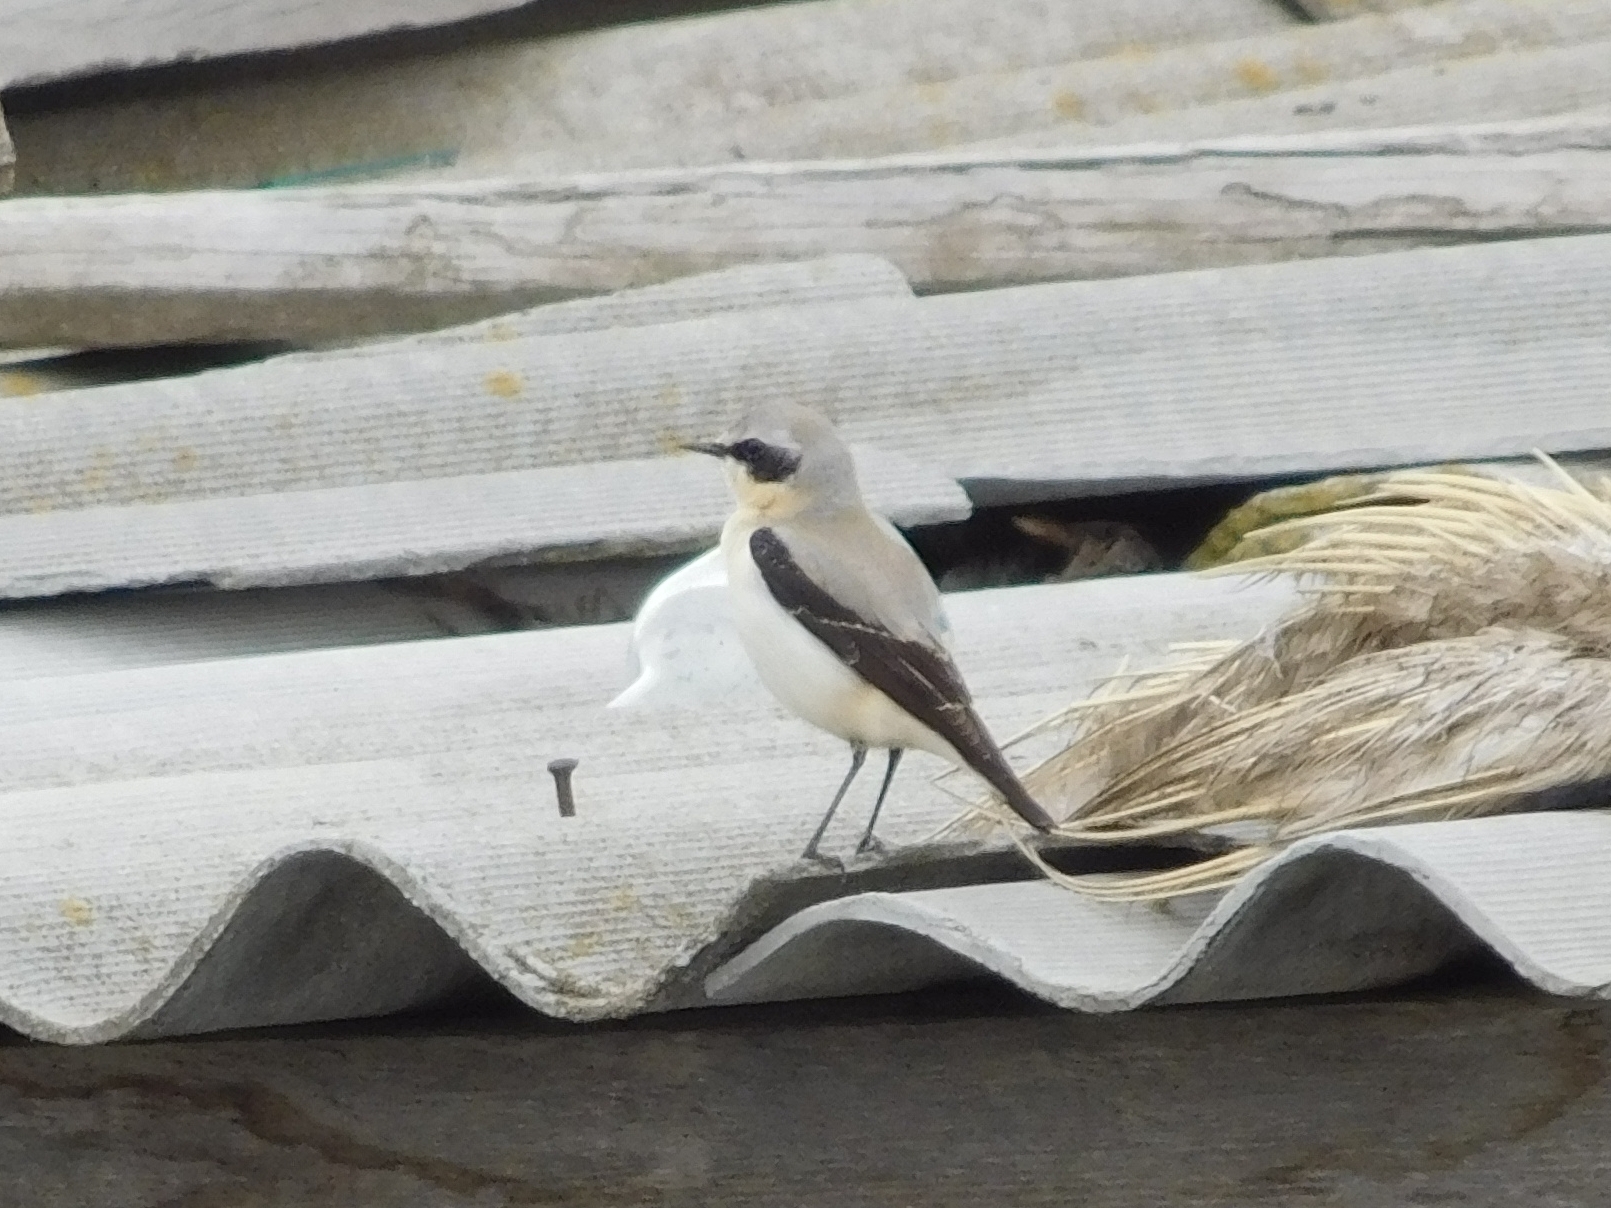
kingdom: Animalia
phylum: Chordata
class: Aves
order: Passeriformes
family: Muscicapidae
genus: Oenanthe
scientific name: Oenanthe oenanthe
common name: Northern wheatear
